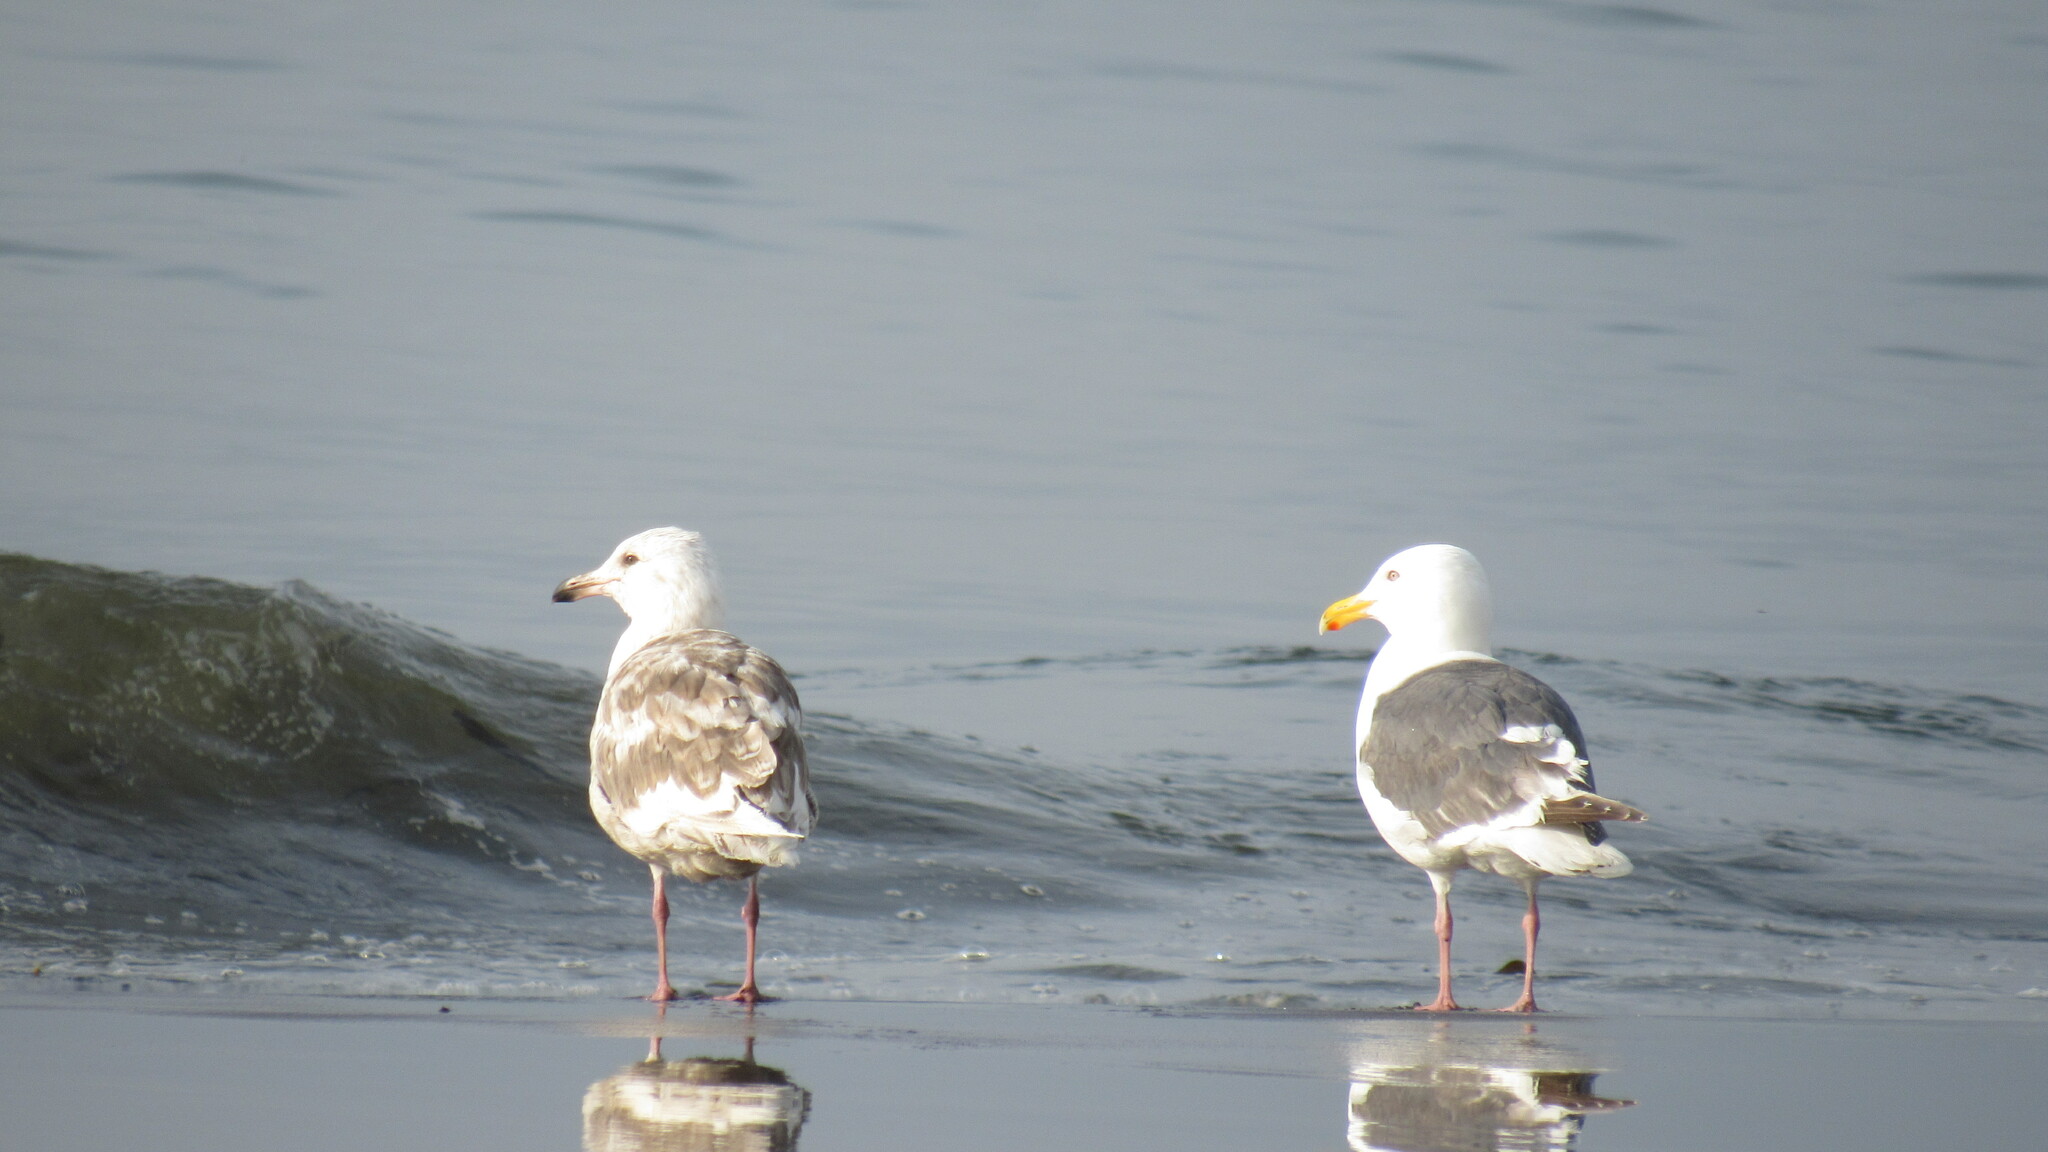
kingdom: Animalia
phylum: Chordata
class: Aves
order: Charadriiformes
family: Laridae
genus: Larus
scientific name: Larus schistisagus
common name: Slaty-backed gull
